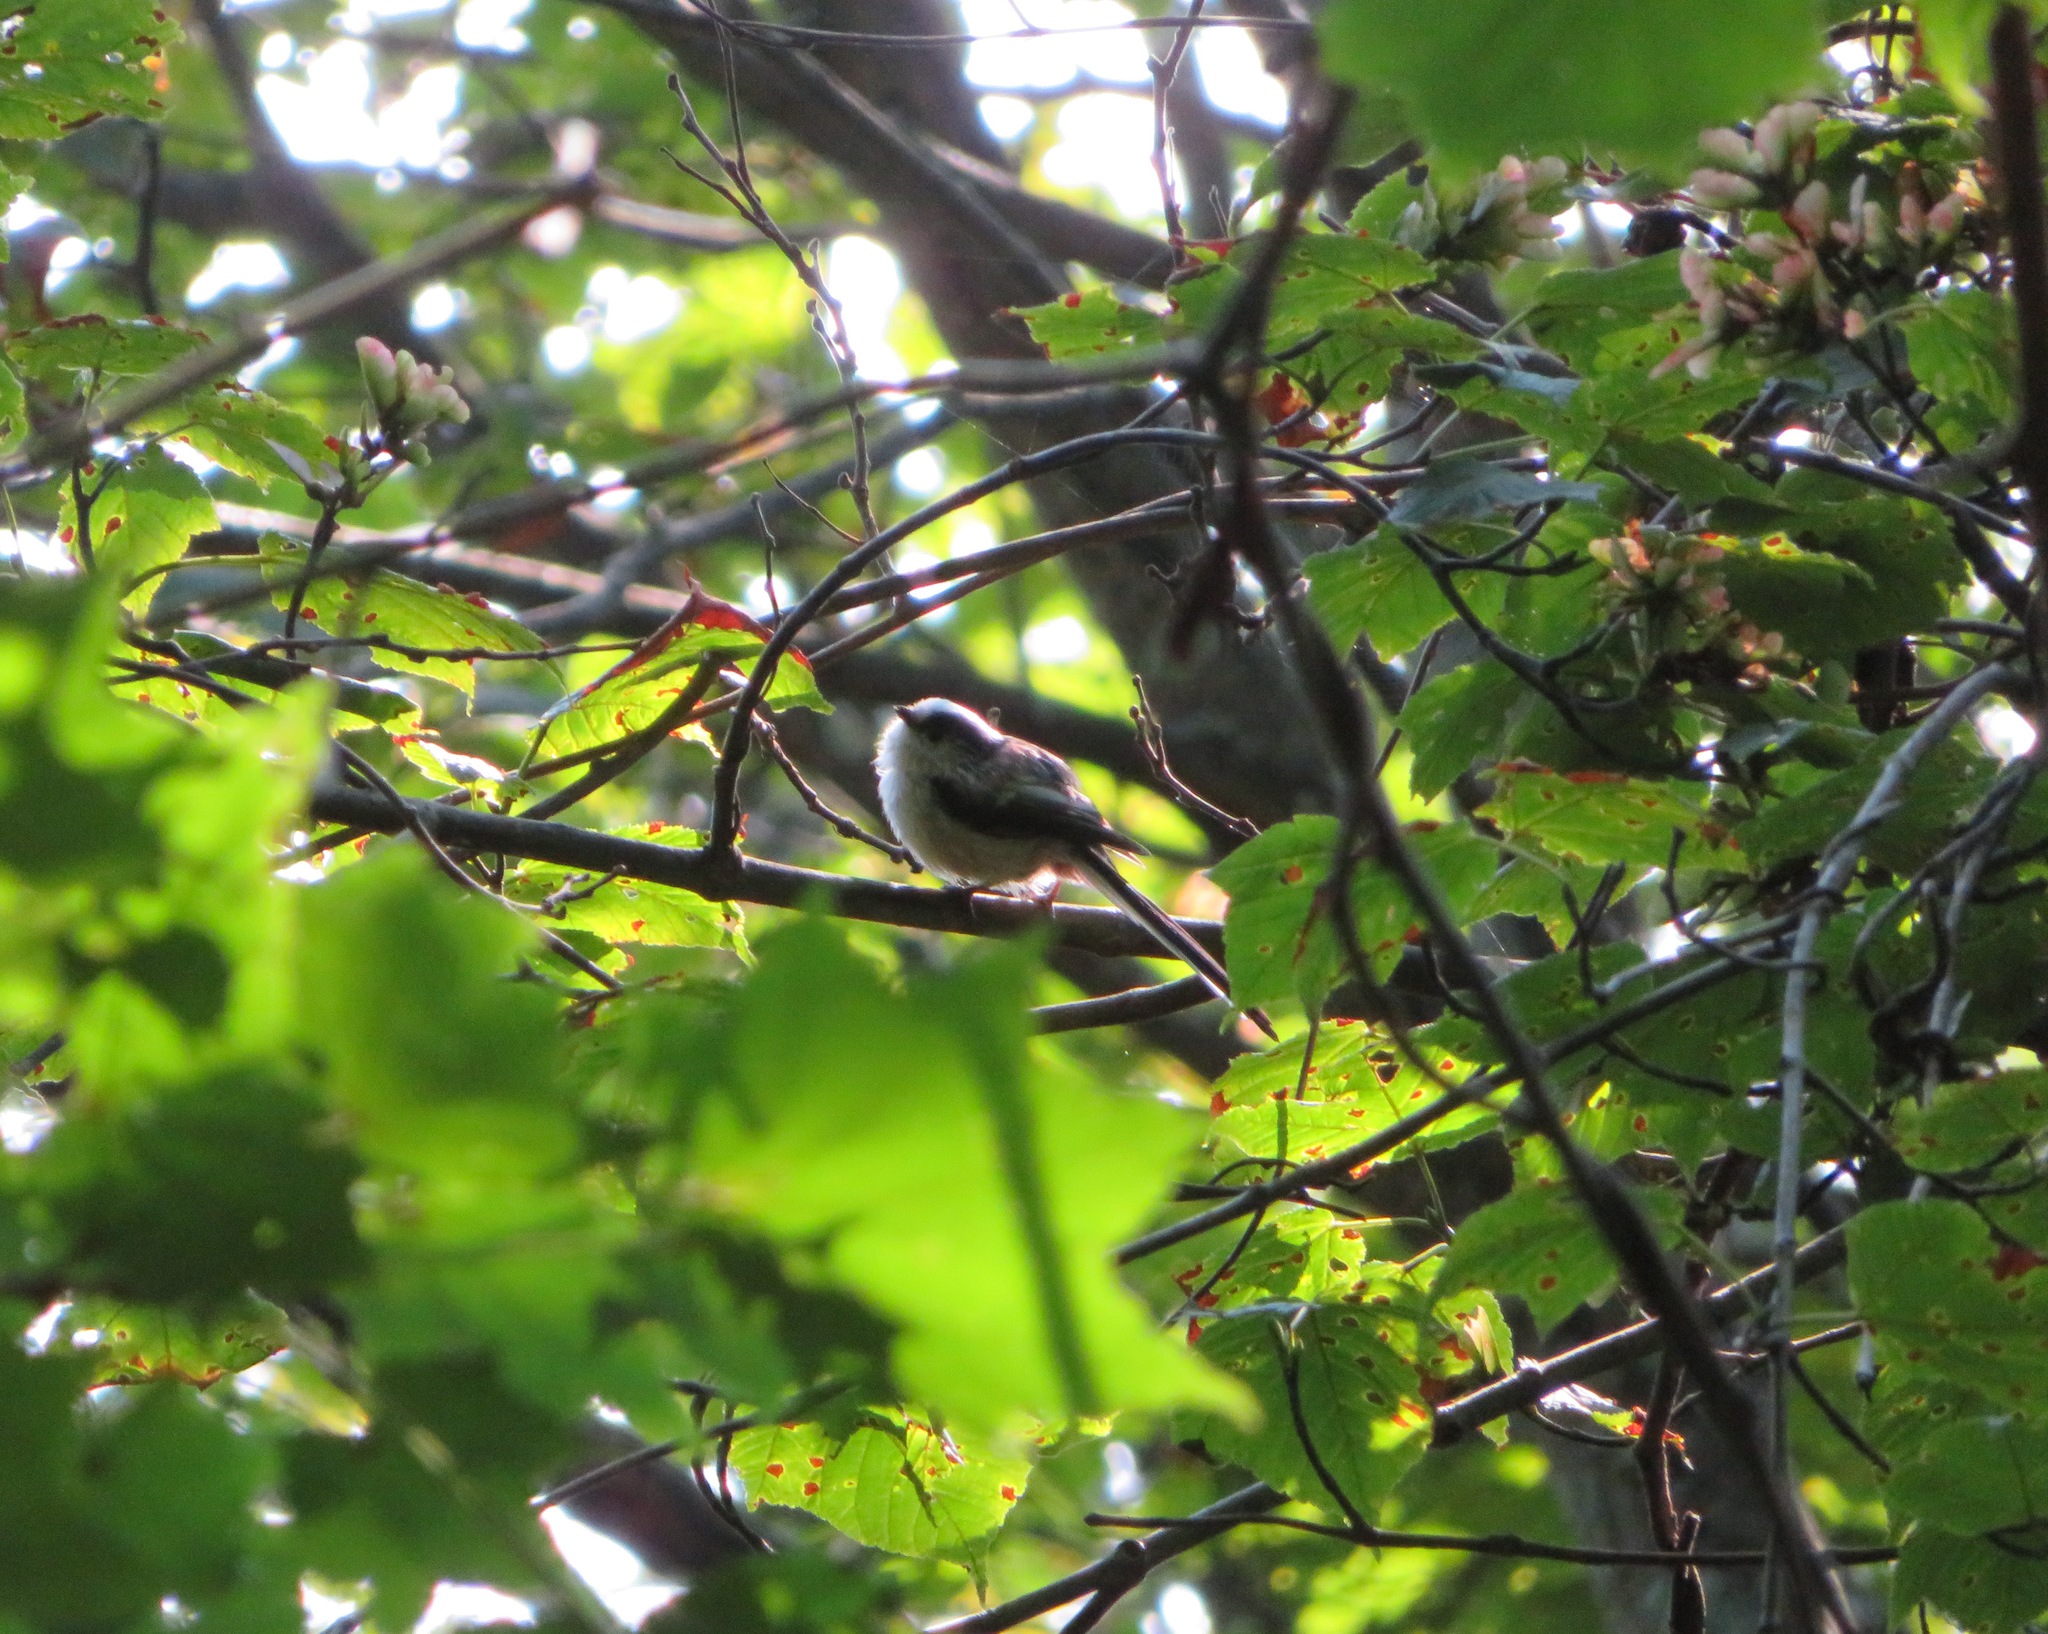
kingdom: Animalia
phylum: Chordata
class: Aves
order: Passeriformes
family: Aegithalidae
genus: Aegithalos
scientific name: Aegithalos caudatus
